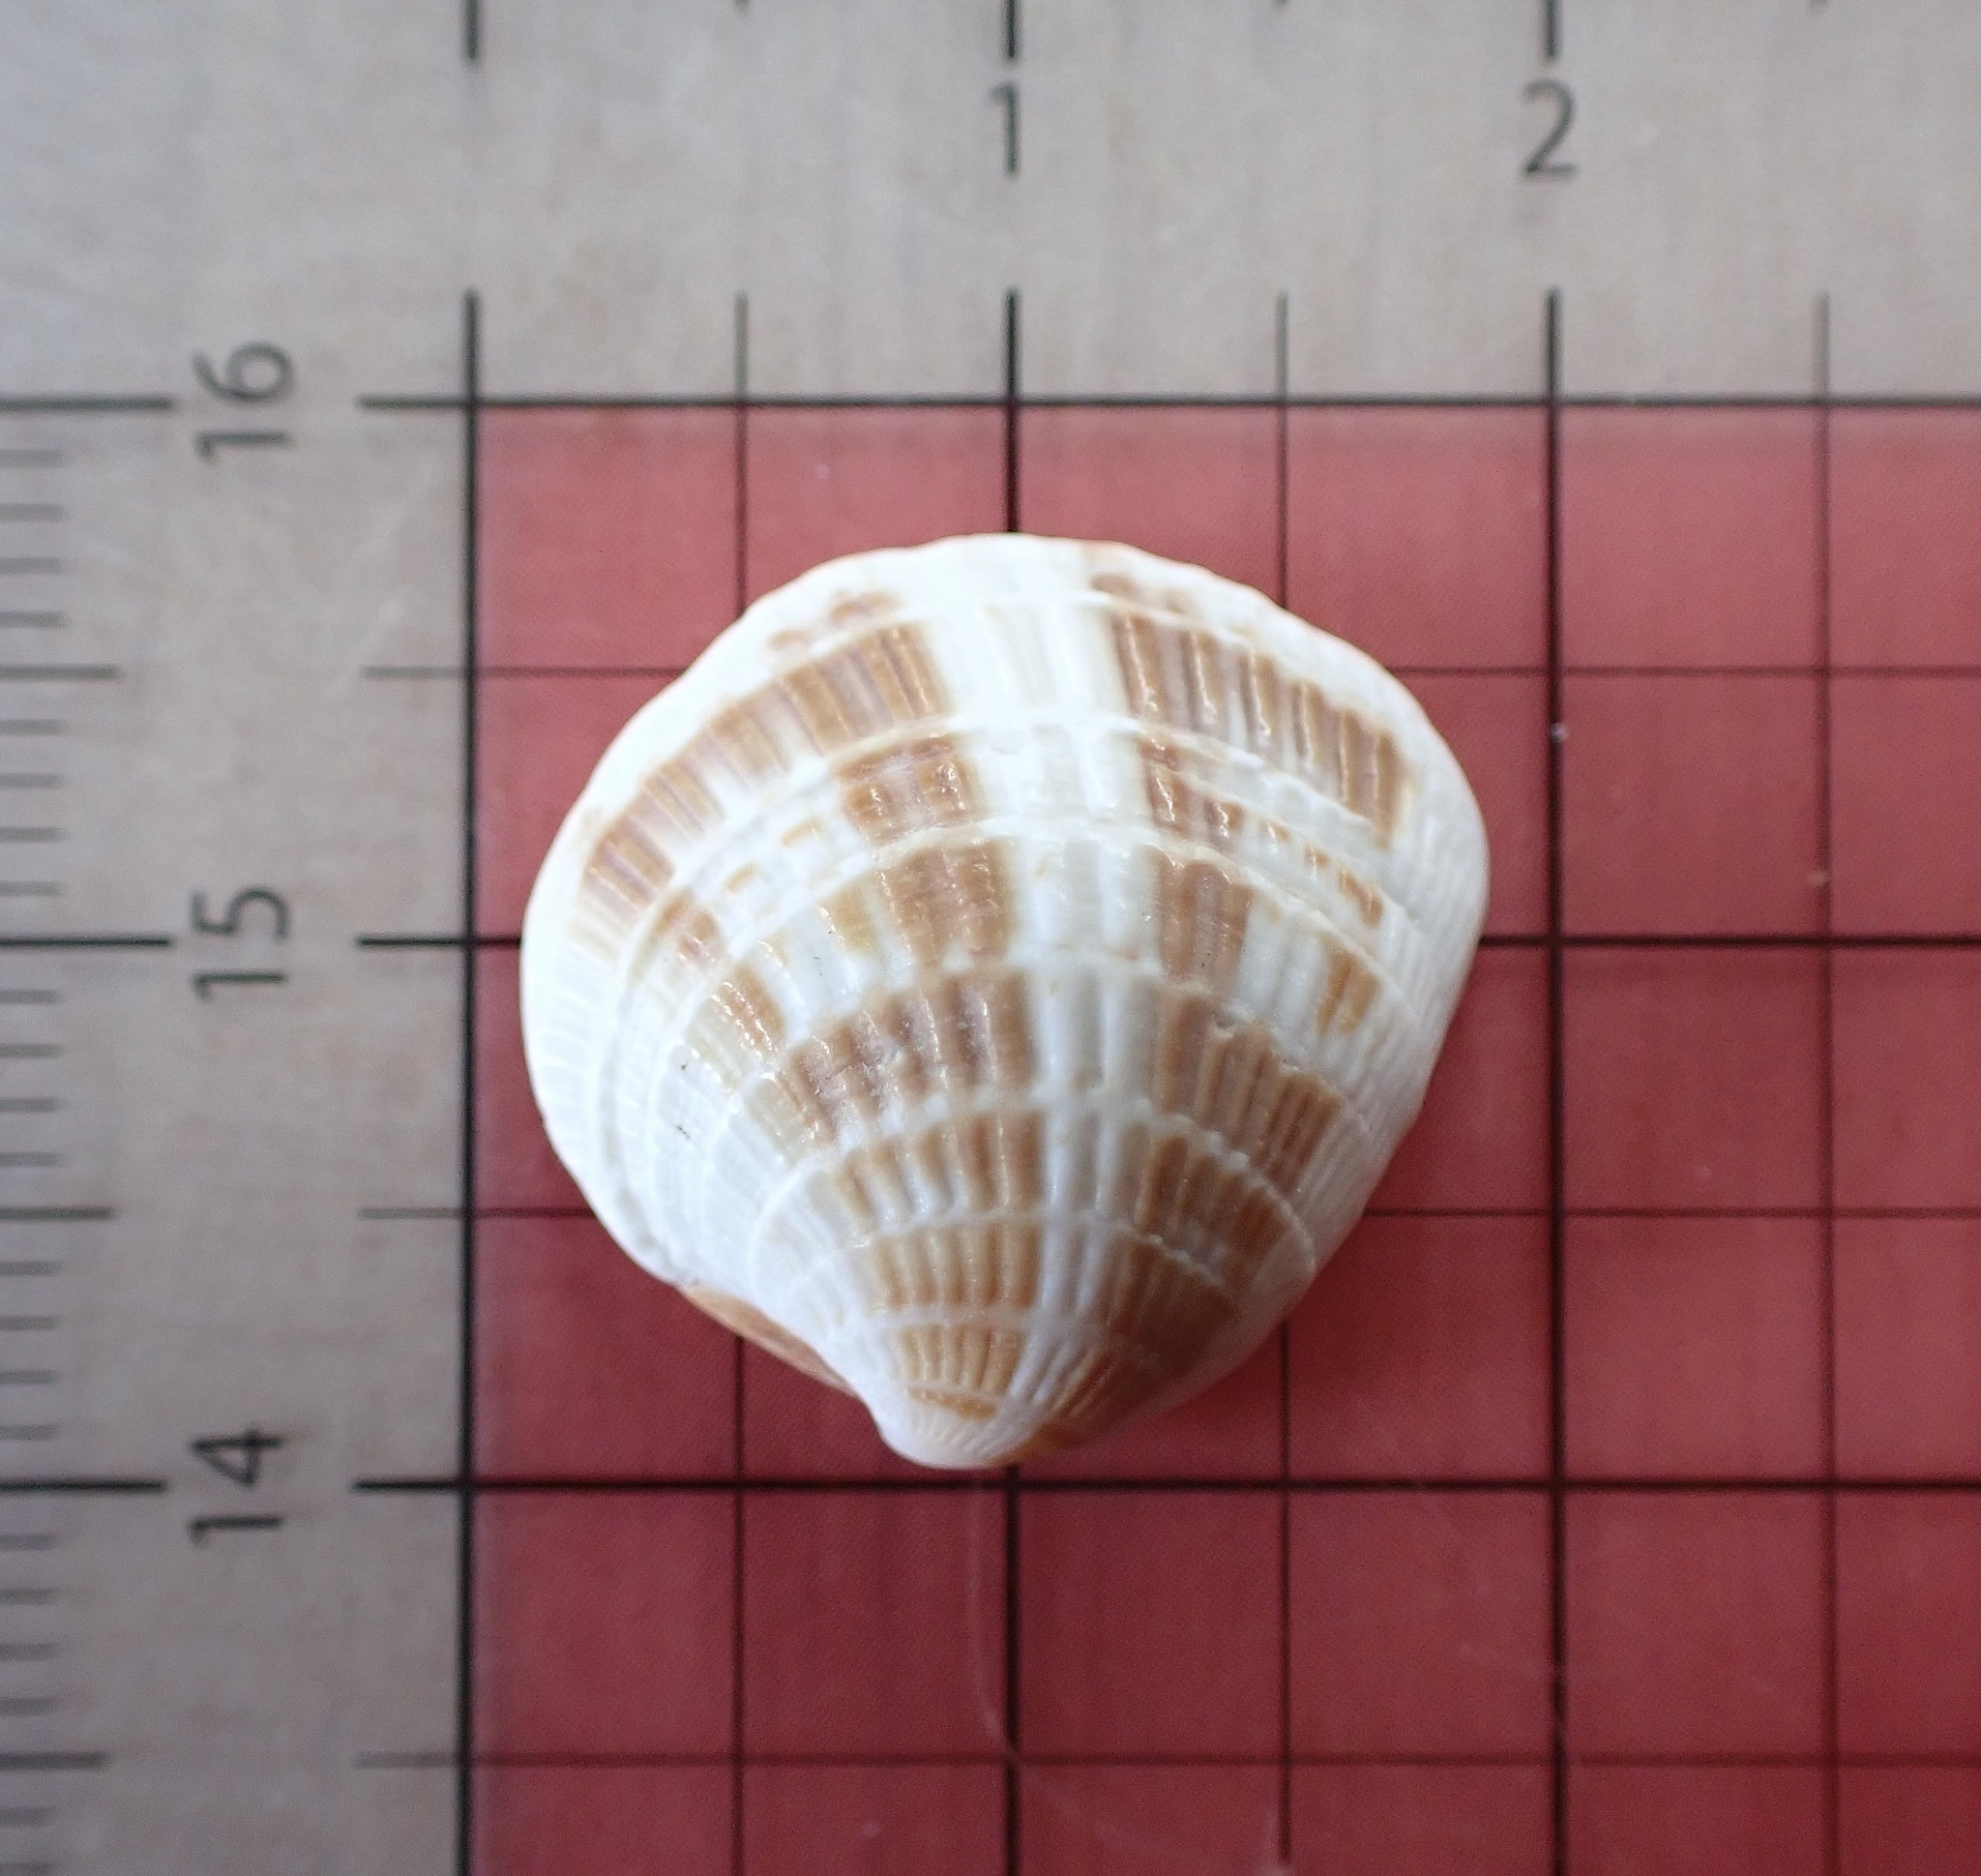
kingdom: Animalia
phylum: Mollusca
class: Bivalvia
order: Venerida
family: Veneridae
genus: Chione
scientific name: Chione elevata
